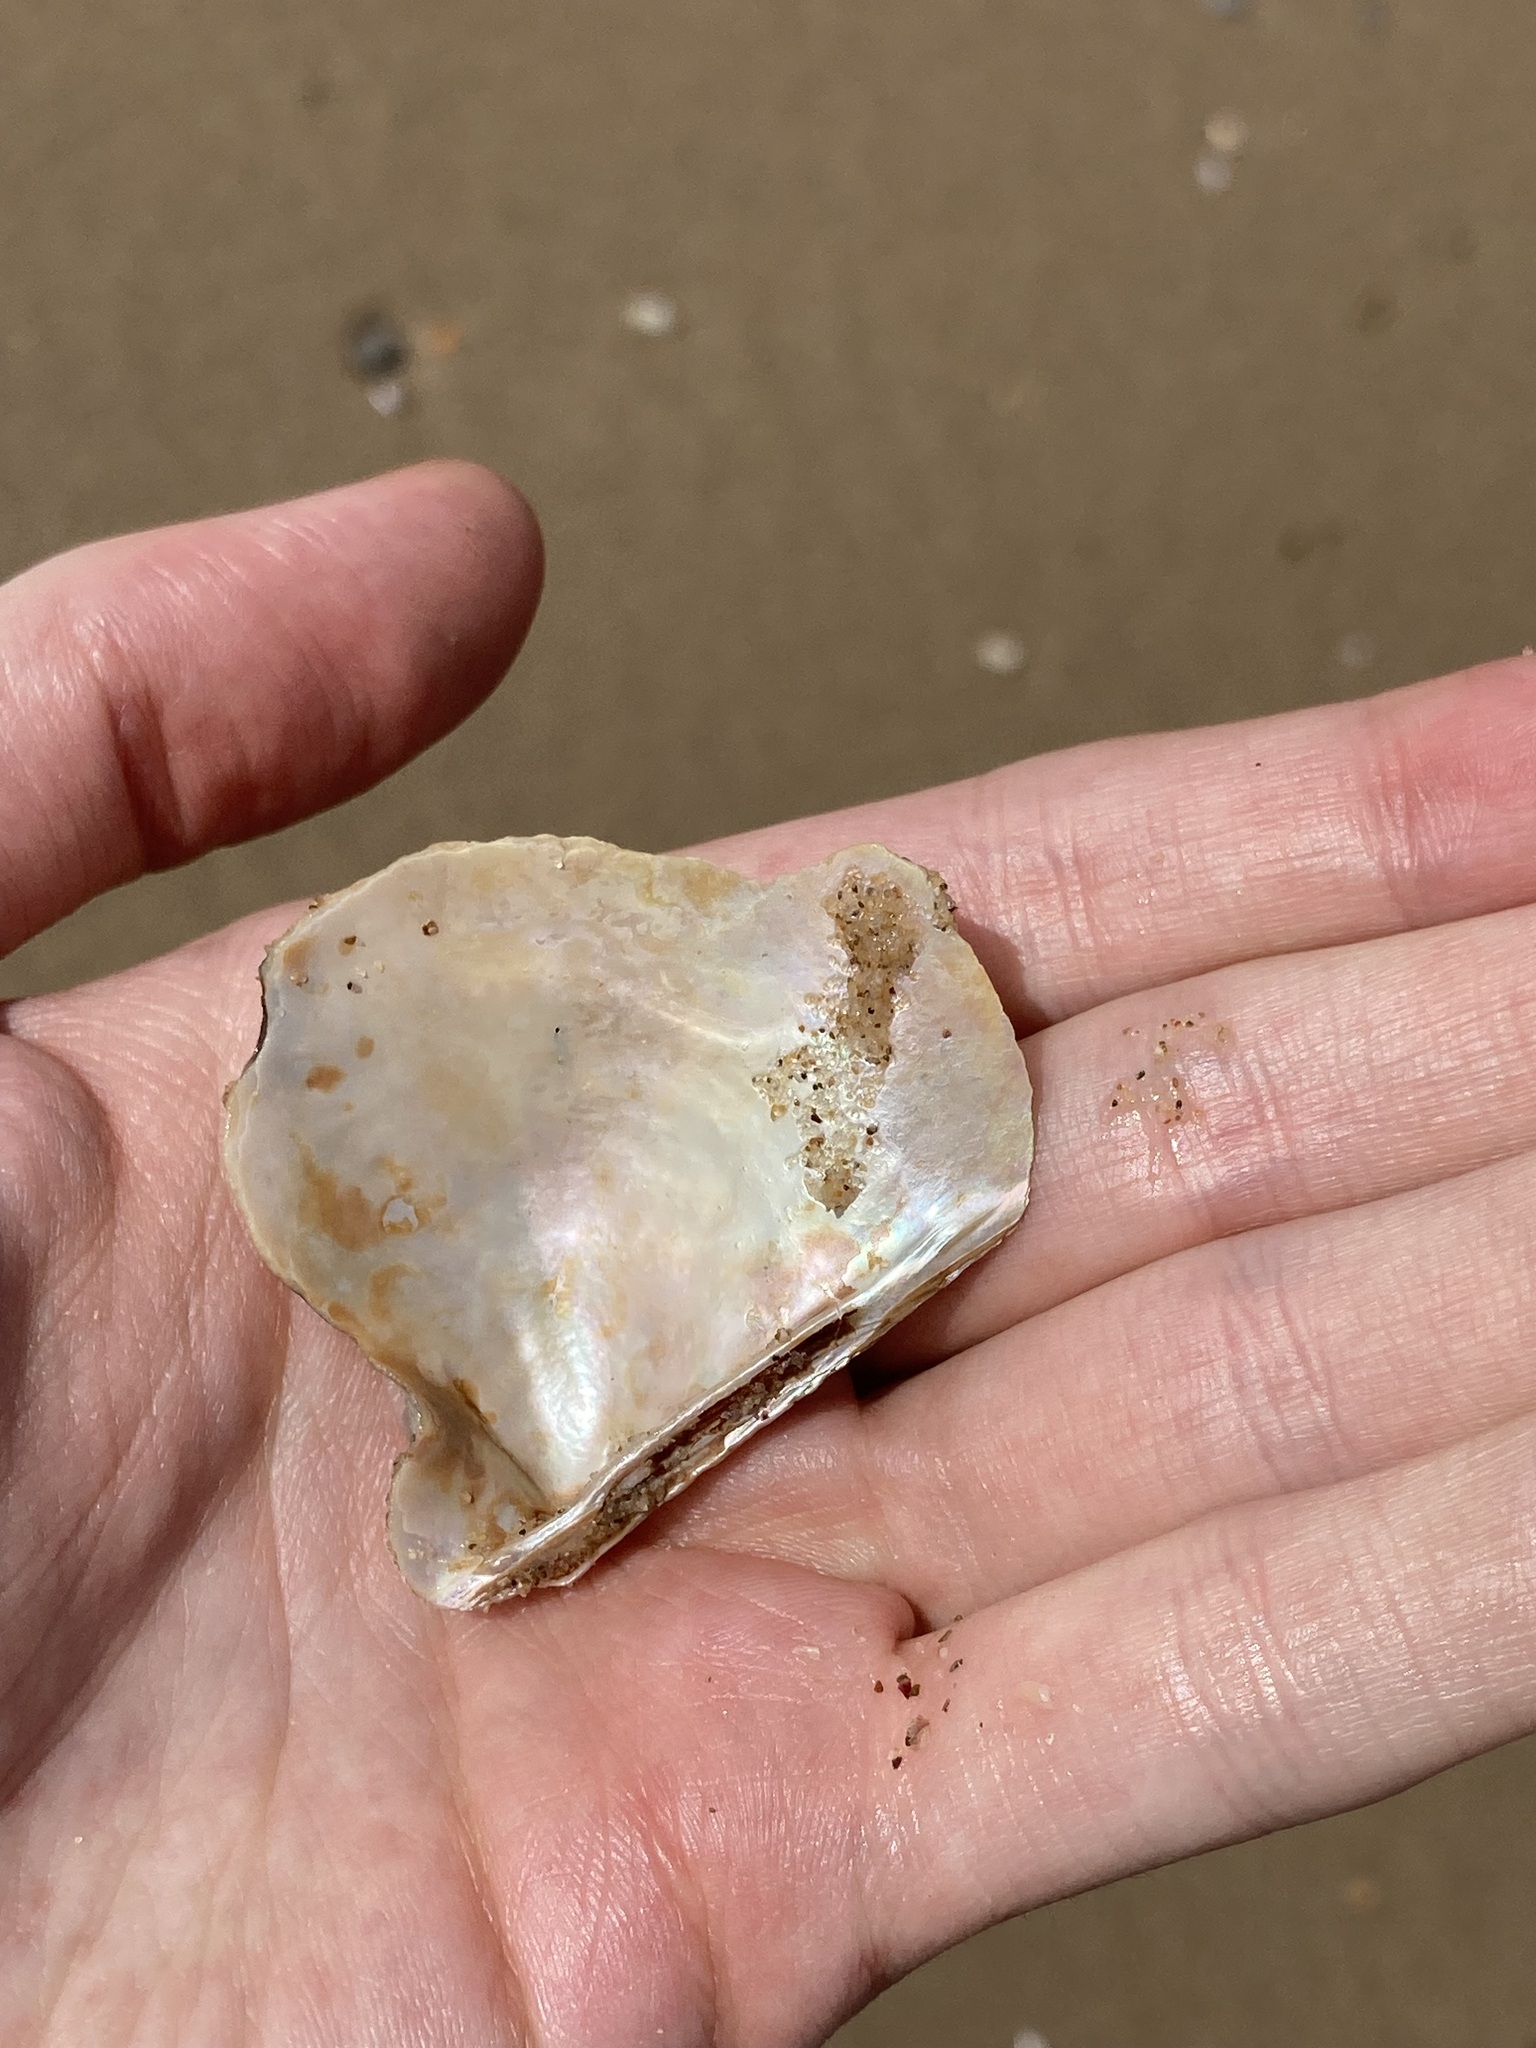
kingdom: Animalia
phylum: Mollusca
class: Bivalvia
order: Ostreida
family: Margaritidae
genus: Pinctada
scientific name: Pinctada maculata
